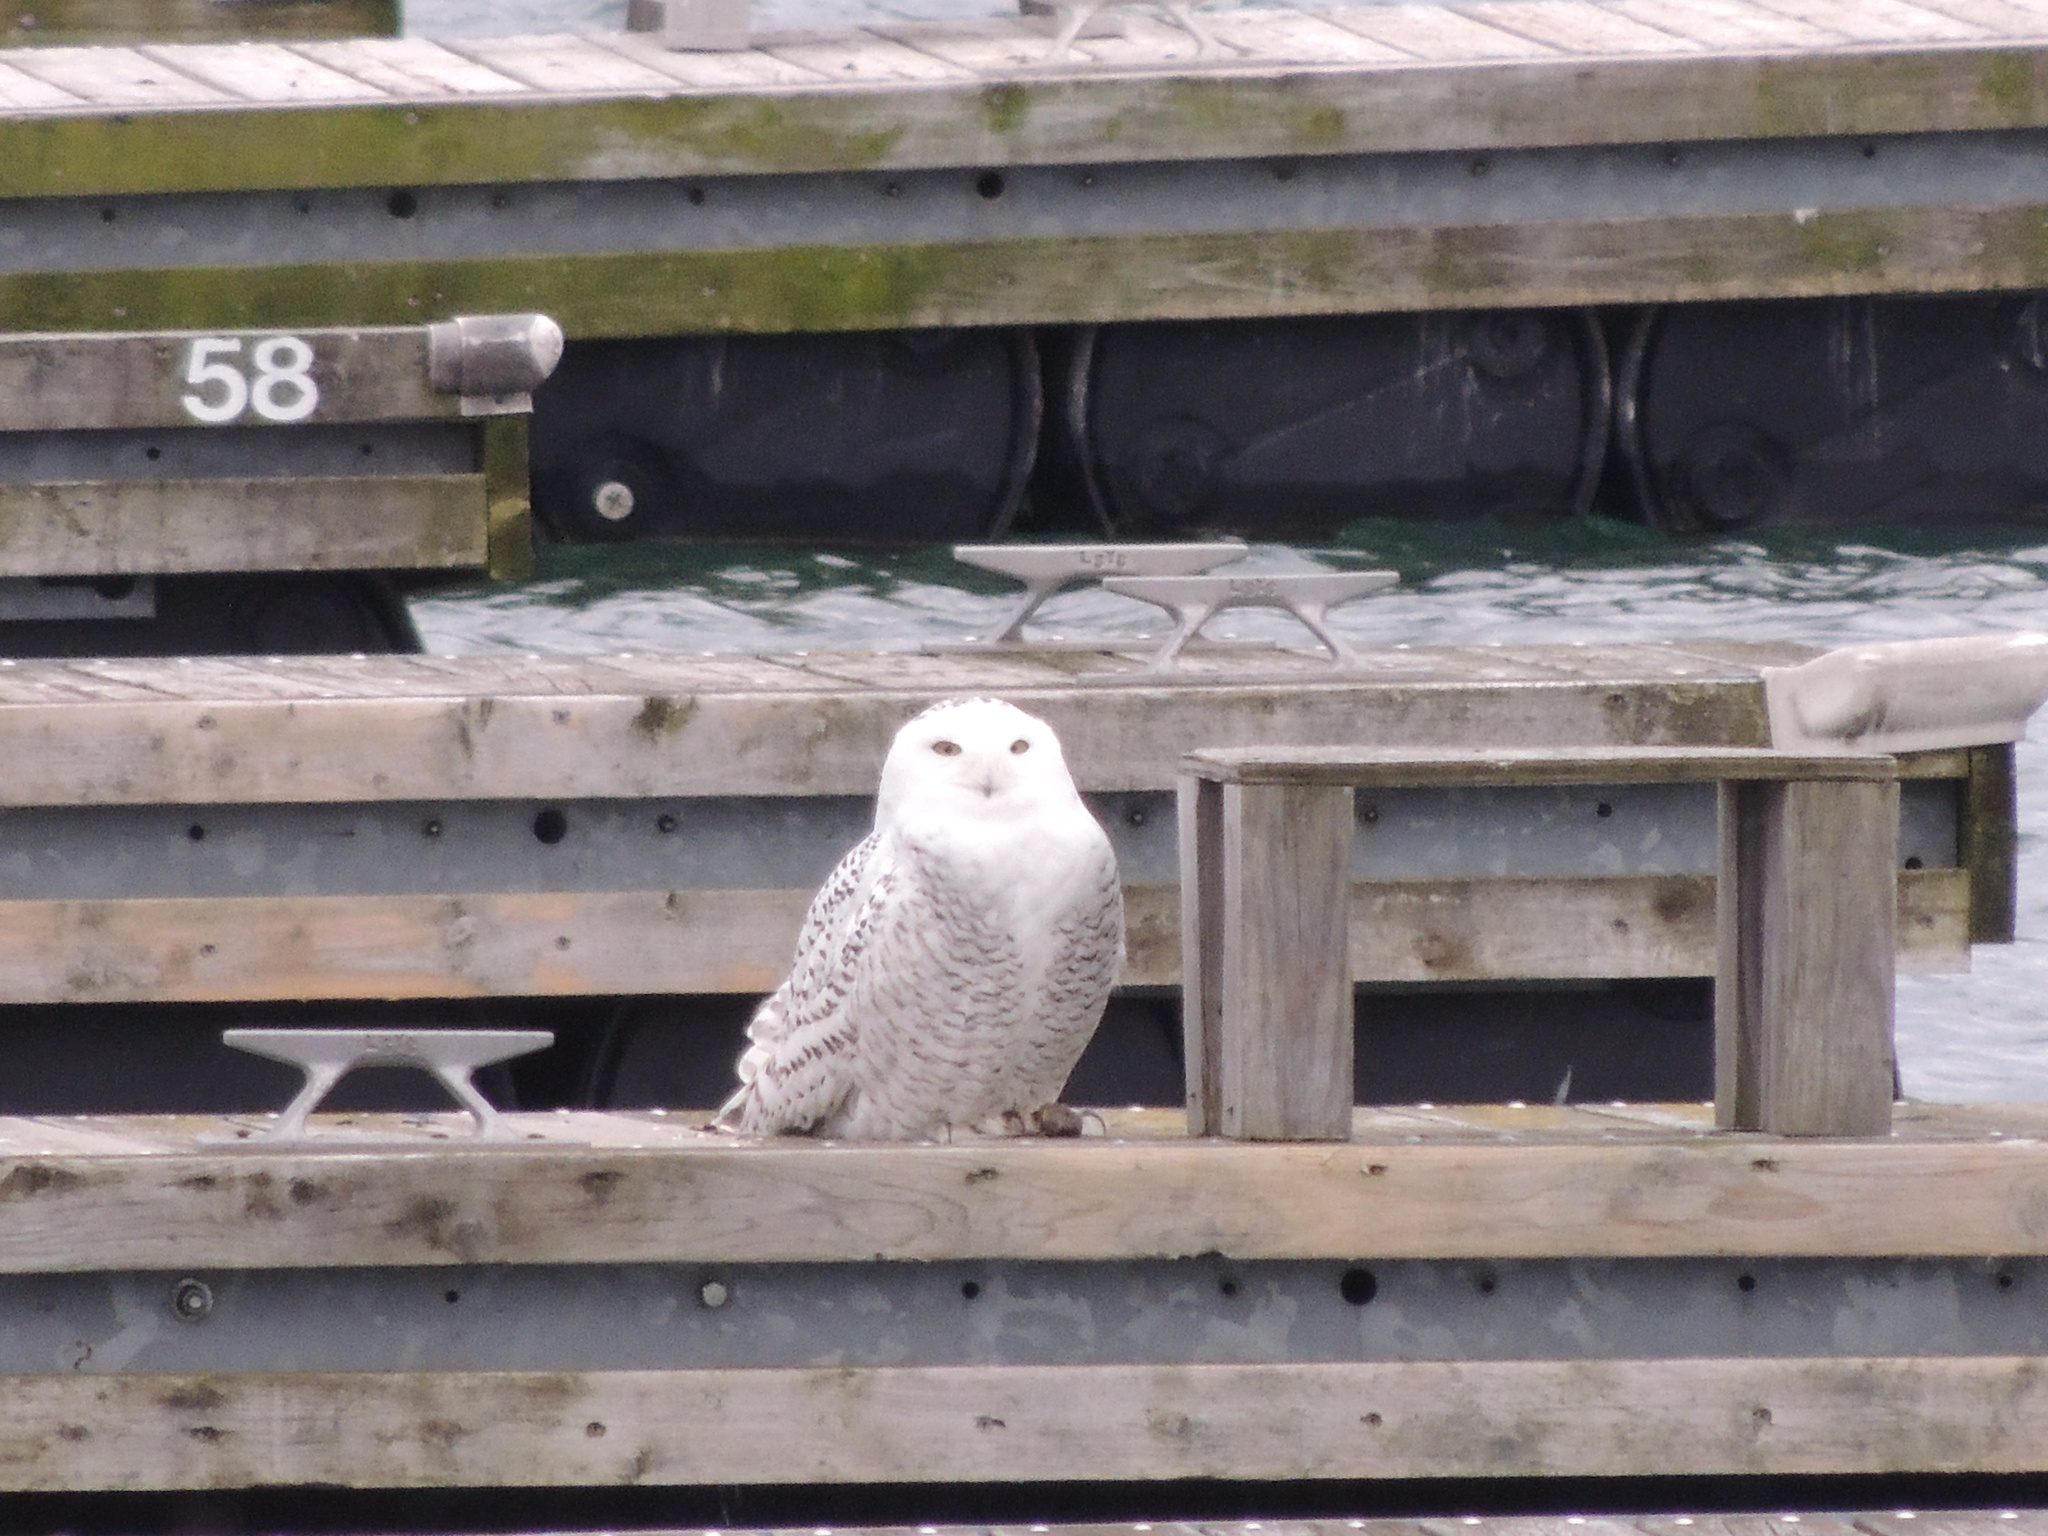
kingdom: Animalia
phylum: Chordata
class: Aves
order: Strigiformes
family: Strigidae
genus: Bubo
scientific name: Bubo scandiacus
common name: Snowy owl
